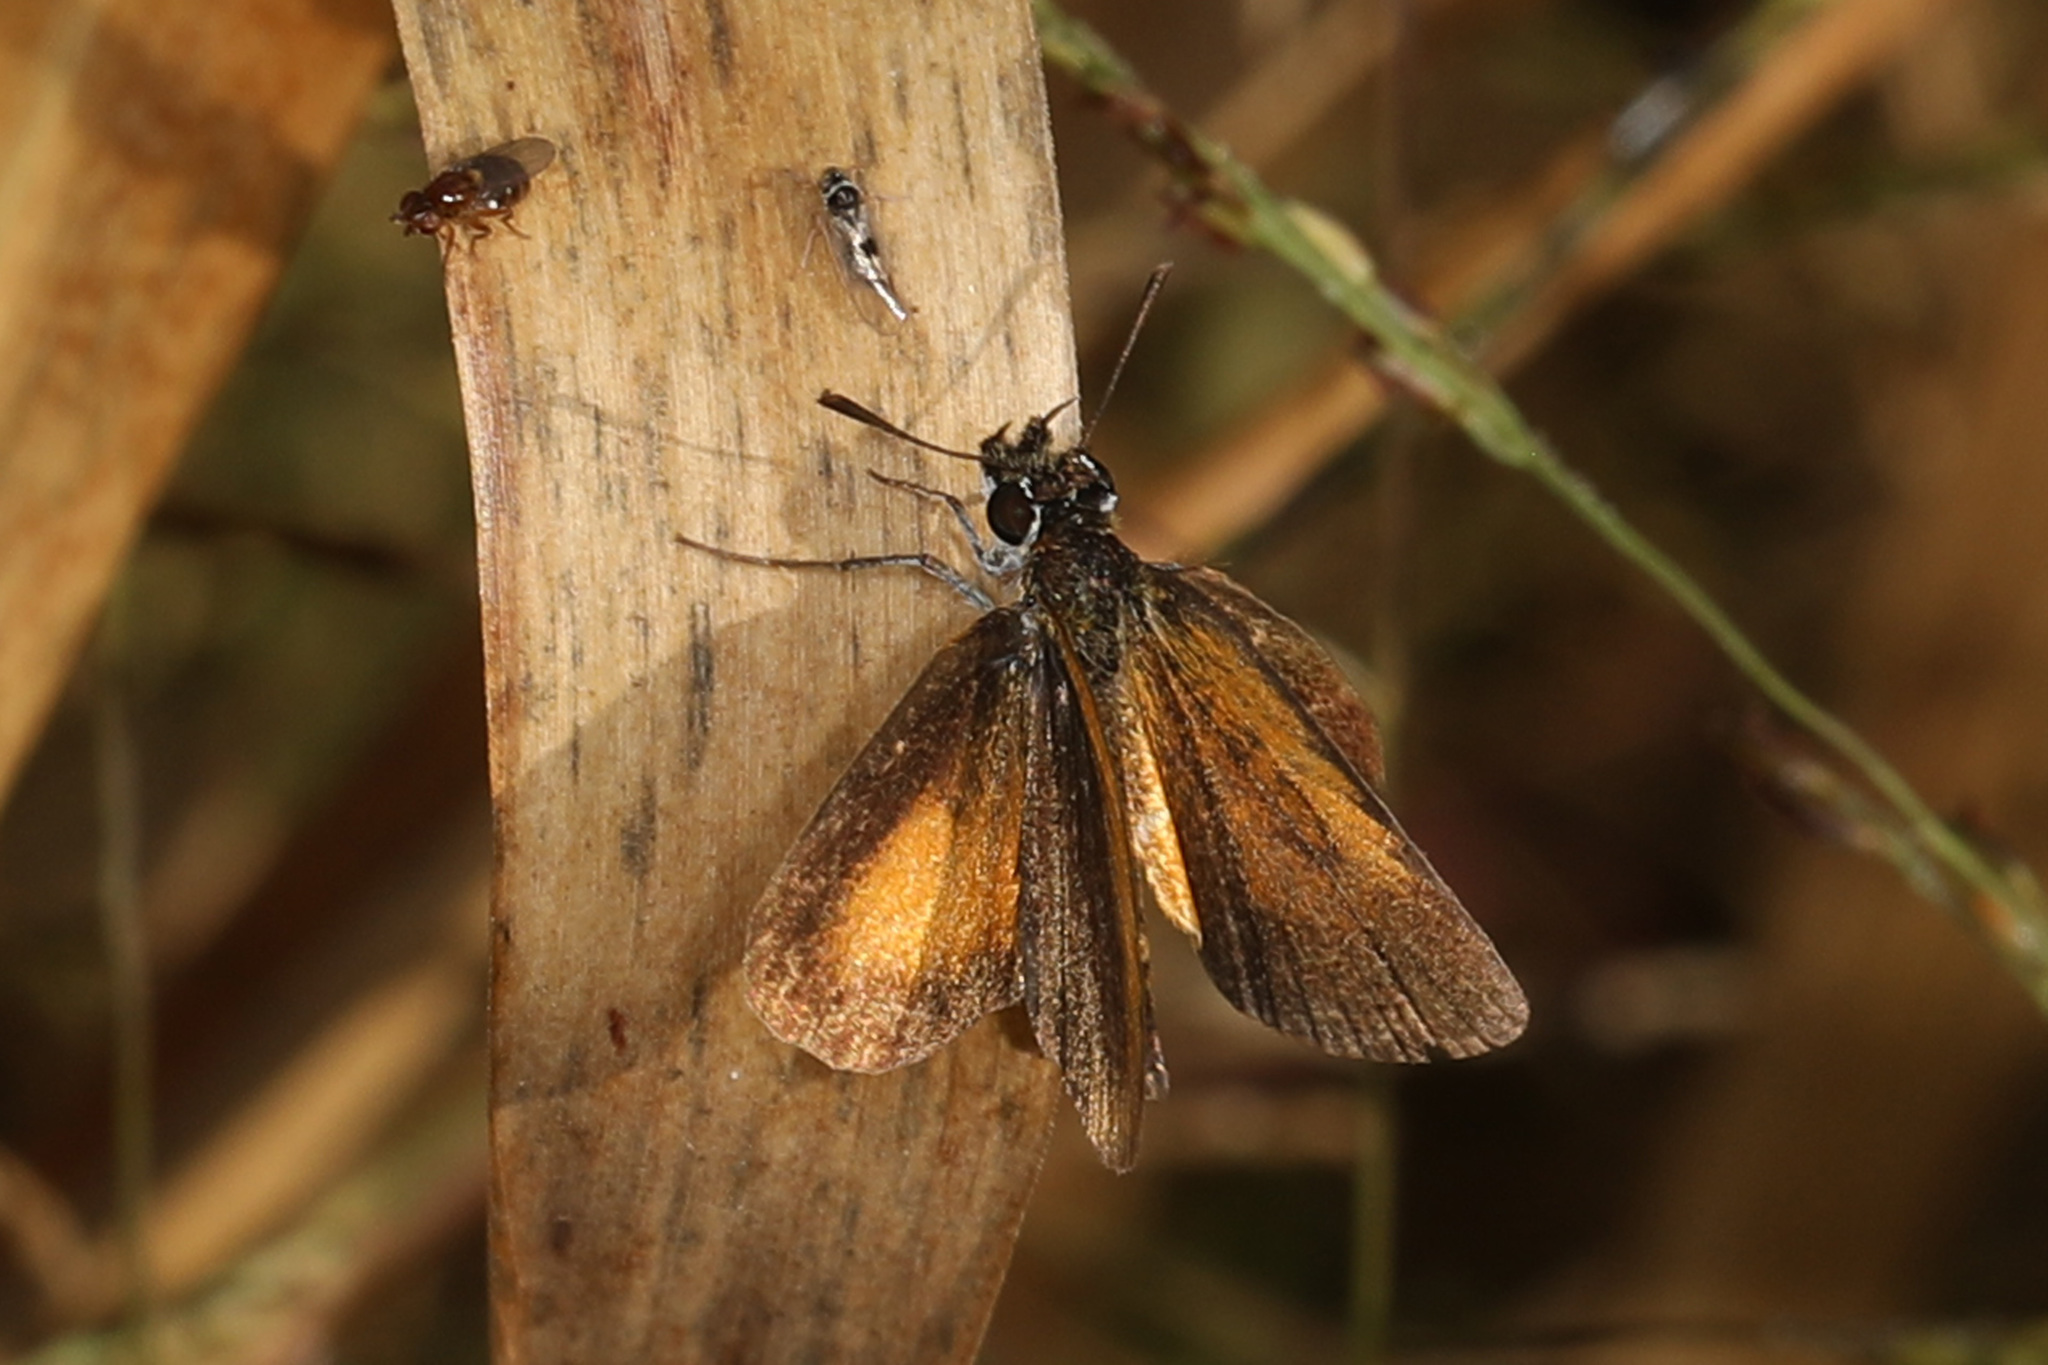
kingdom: Animalia
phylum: Arthropoda
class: Insecta
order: Lepidoptera
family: Hesperiidae
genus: Ancyloxypha
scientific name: Ancyloxypha numitor
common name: Least skipper
